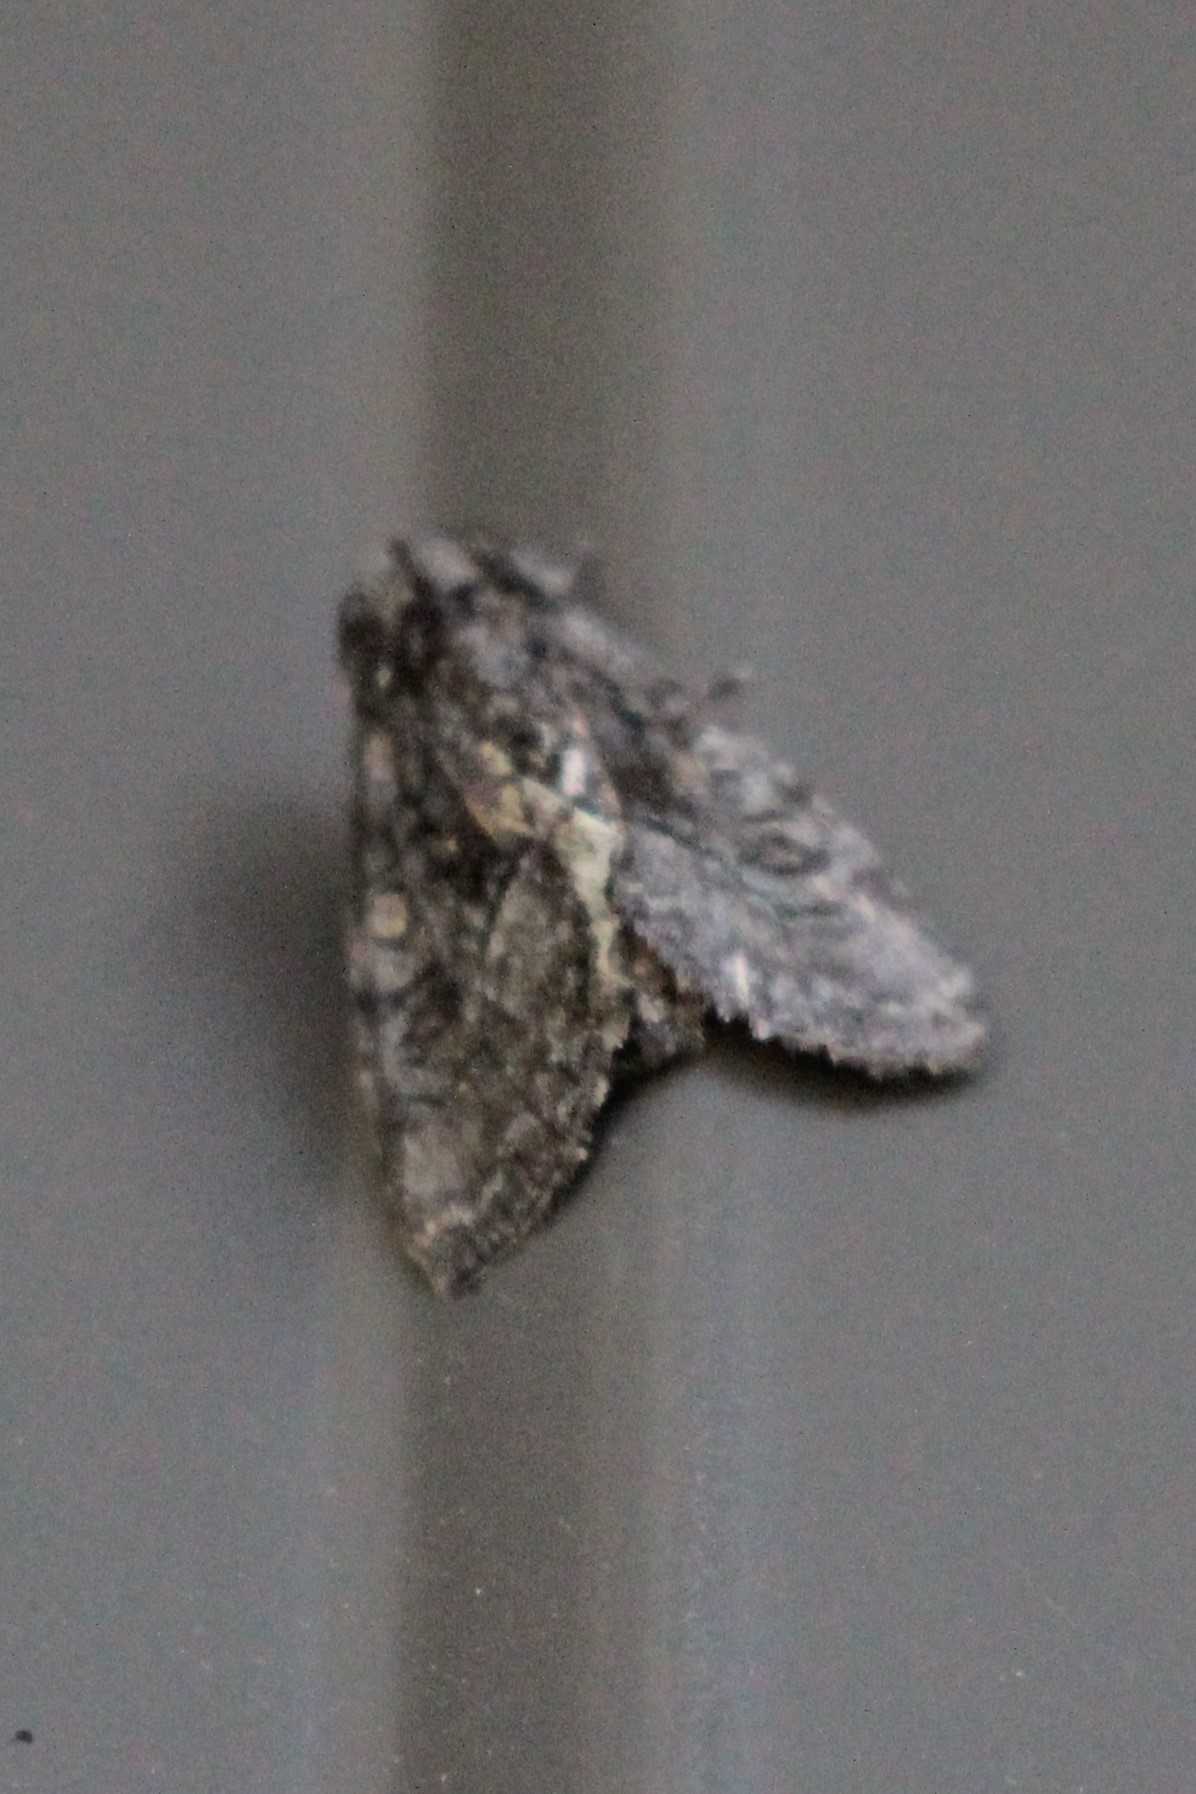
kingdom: Animalia
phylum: Arthropoda
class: Insecta
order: Lepidoptera
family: Noctuidae
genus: Raphia
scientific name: Raphia frater
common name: Brother
